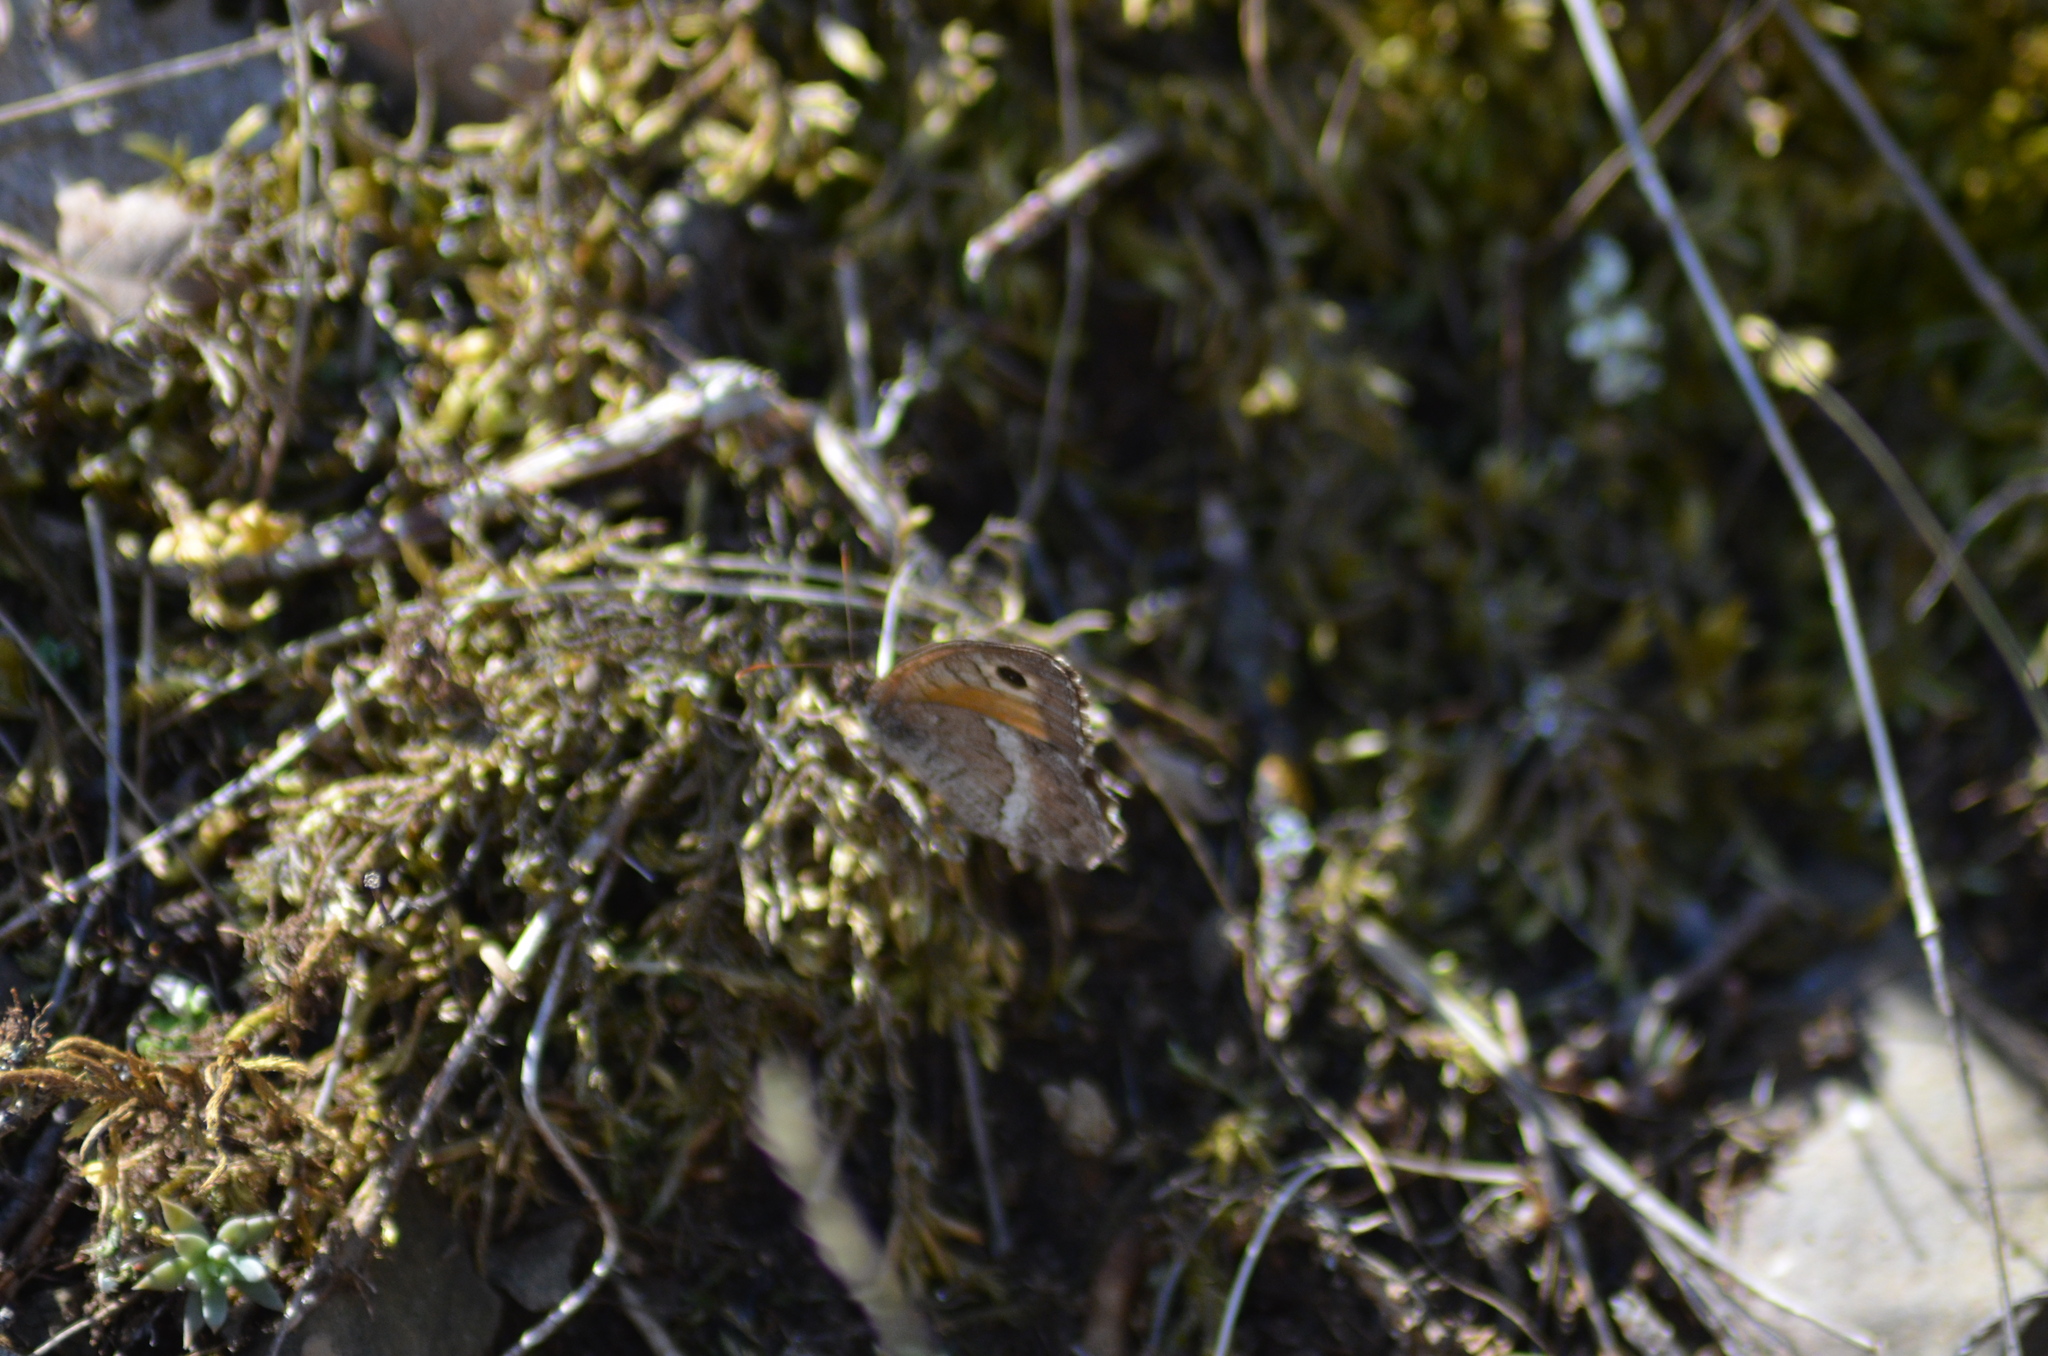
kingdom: Animalia
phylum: Arthropoda
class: Insecta
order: Lepidoptera
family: Nymphalidae
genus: Arethusana
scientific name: Arethusana arethusa
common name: False grayling
